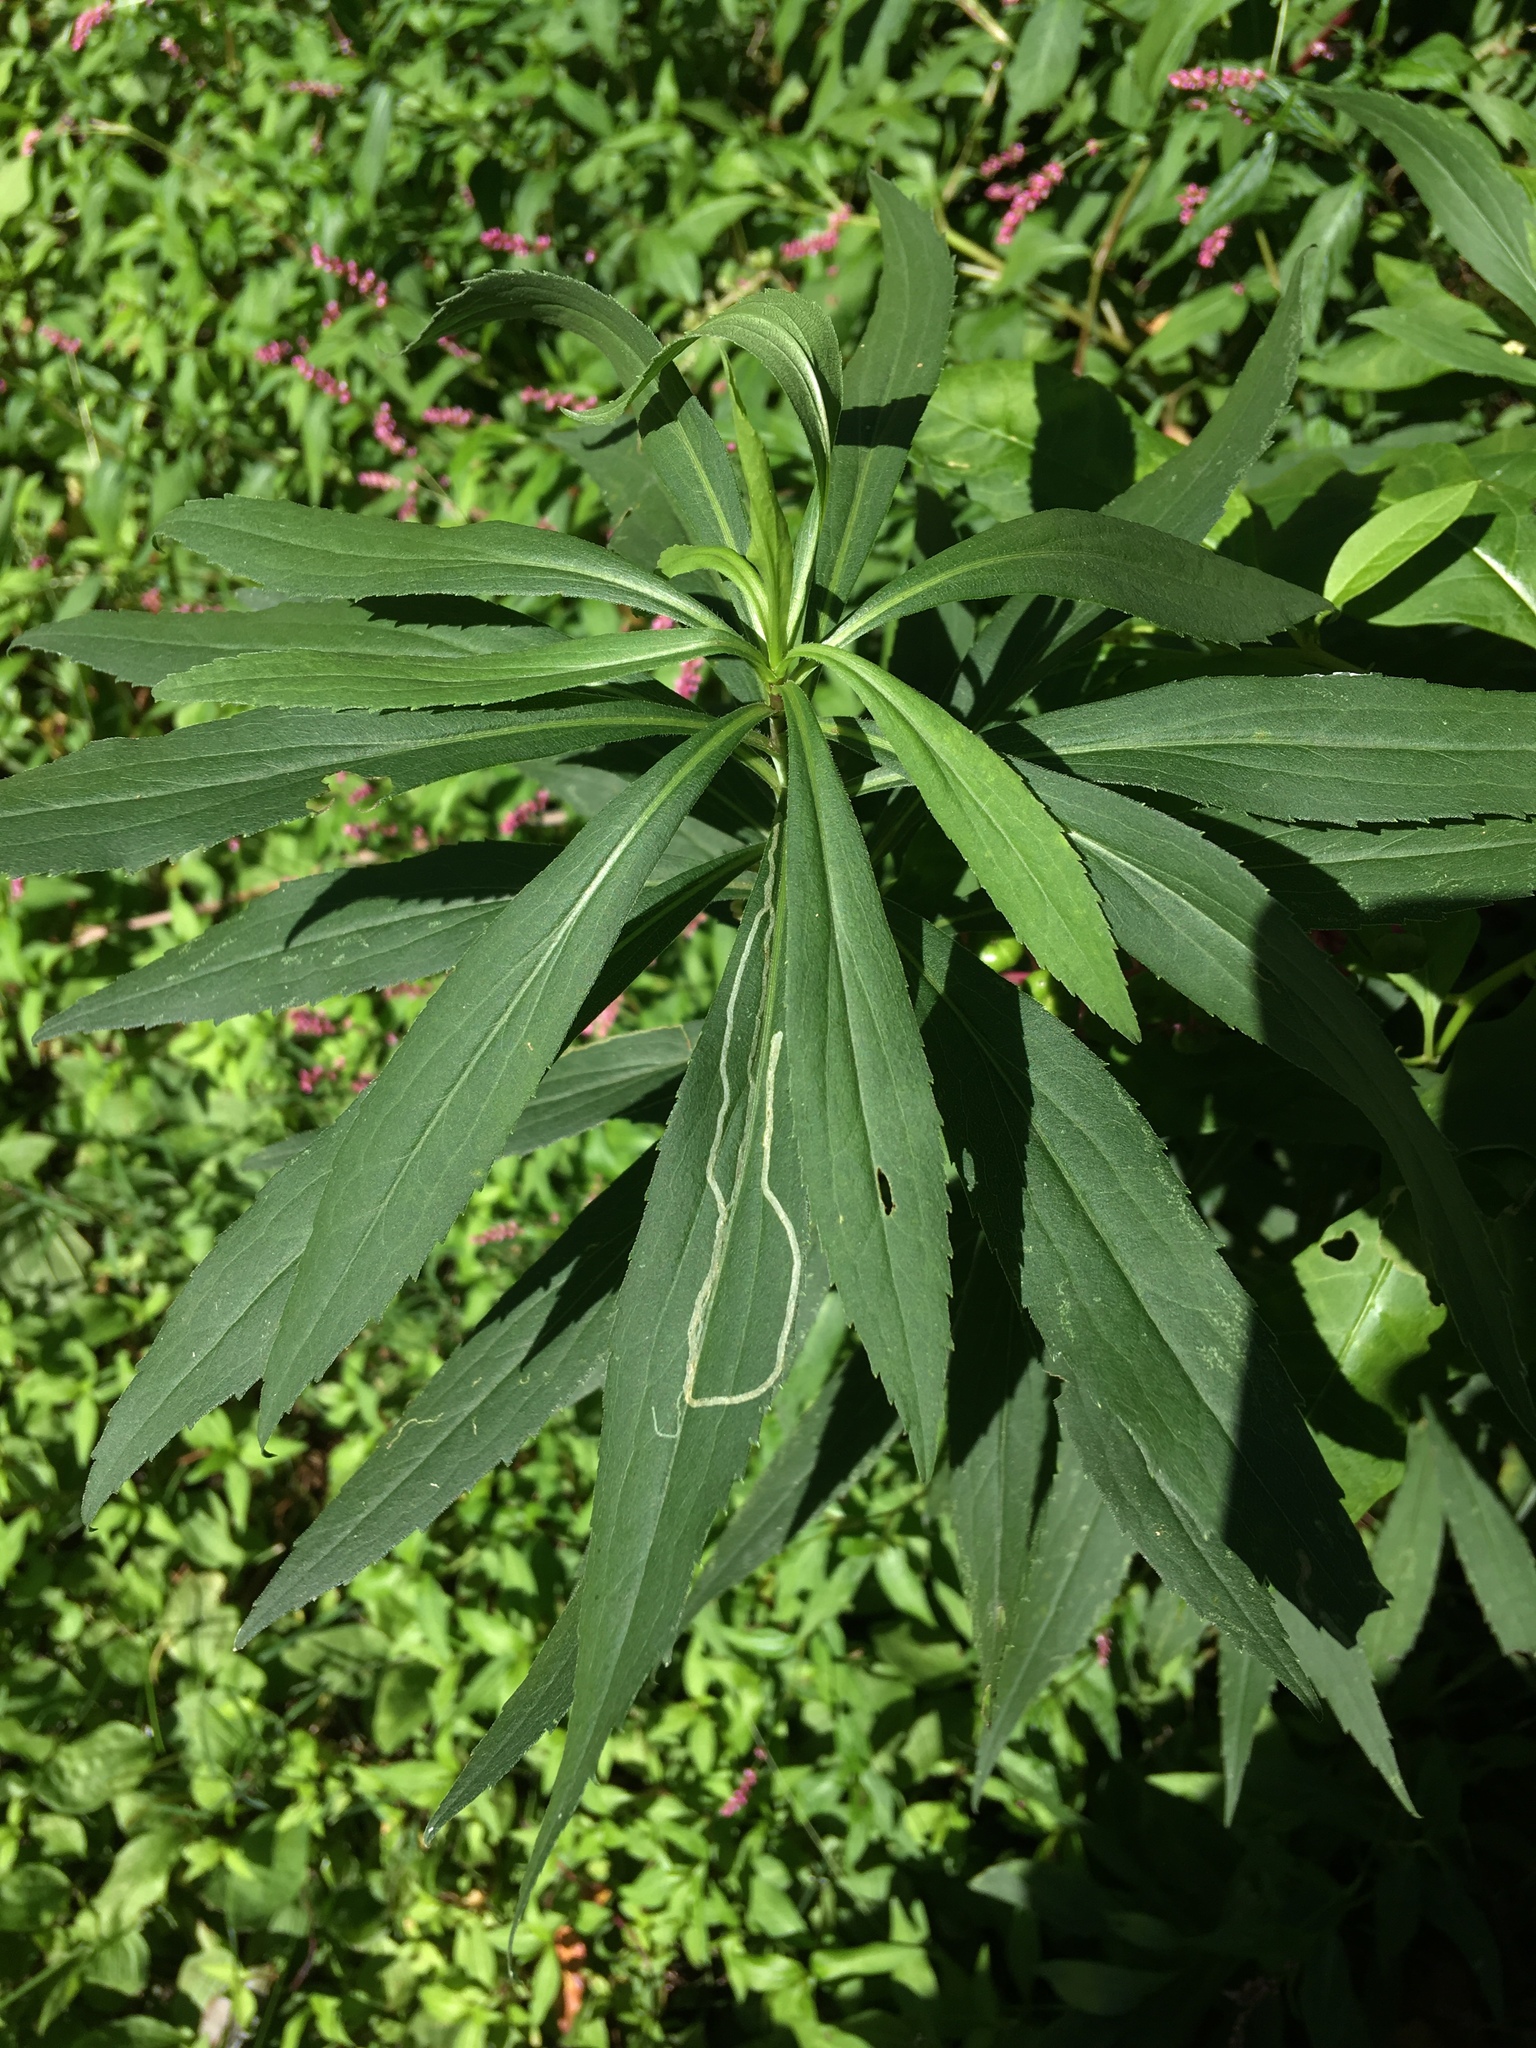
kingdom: Plantae
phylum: Tracheophyta
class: Magnoliopsida
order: Asterales
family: Asteraceae
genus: Solidago
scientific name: Solidago gigantea
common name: Giant goldenrod
